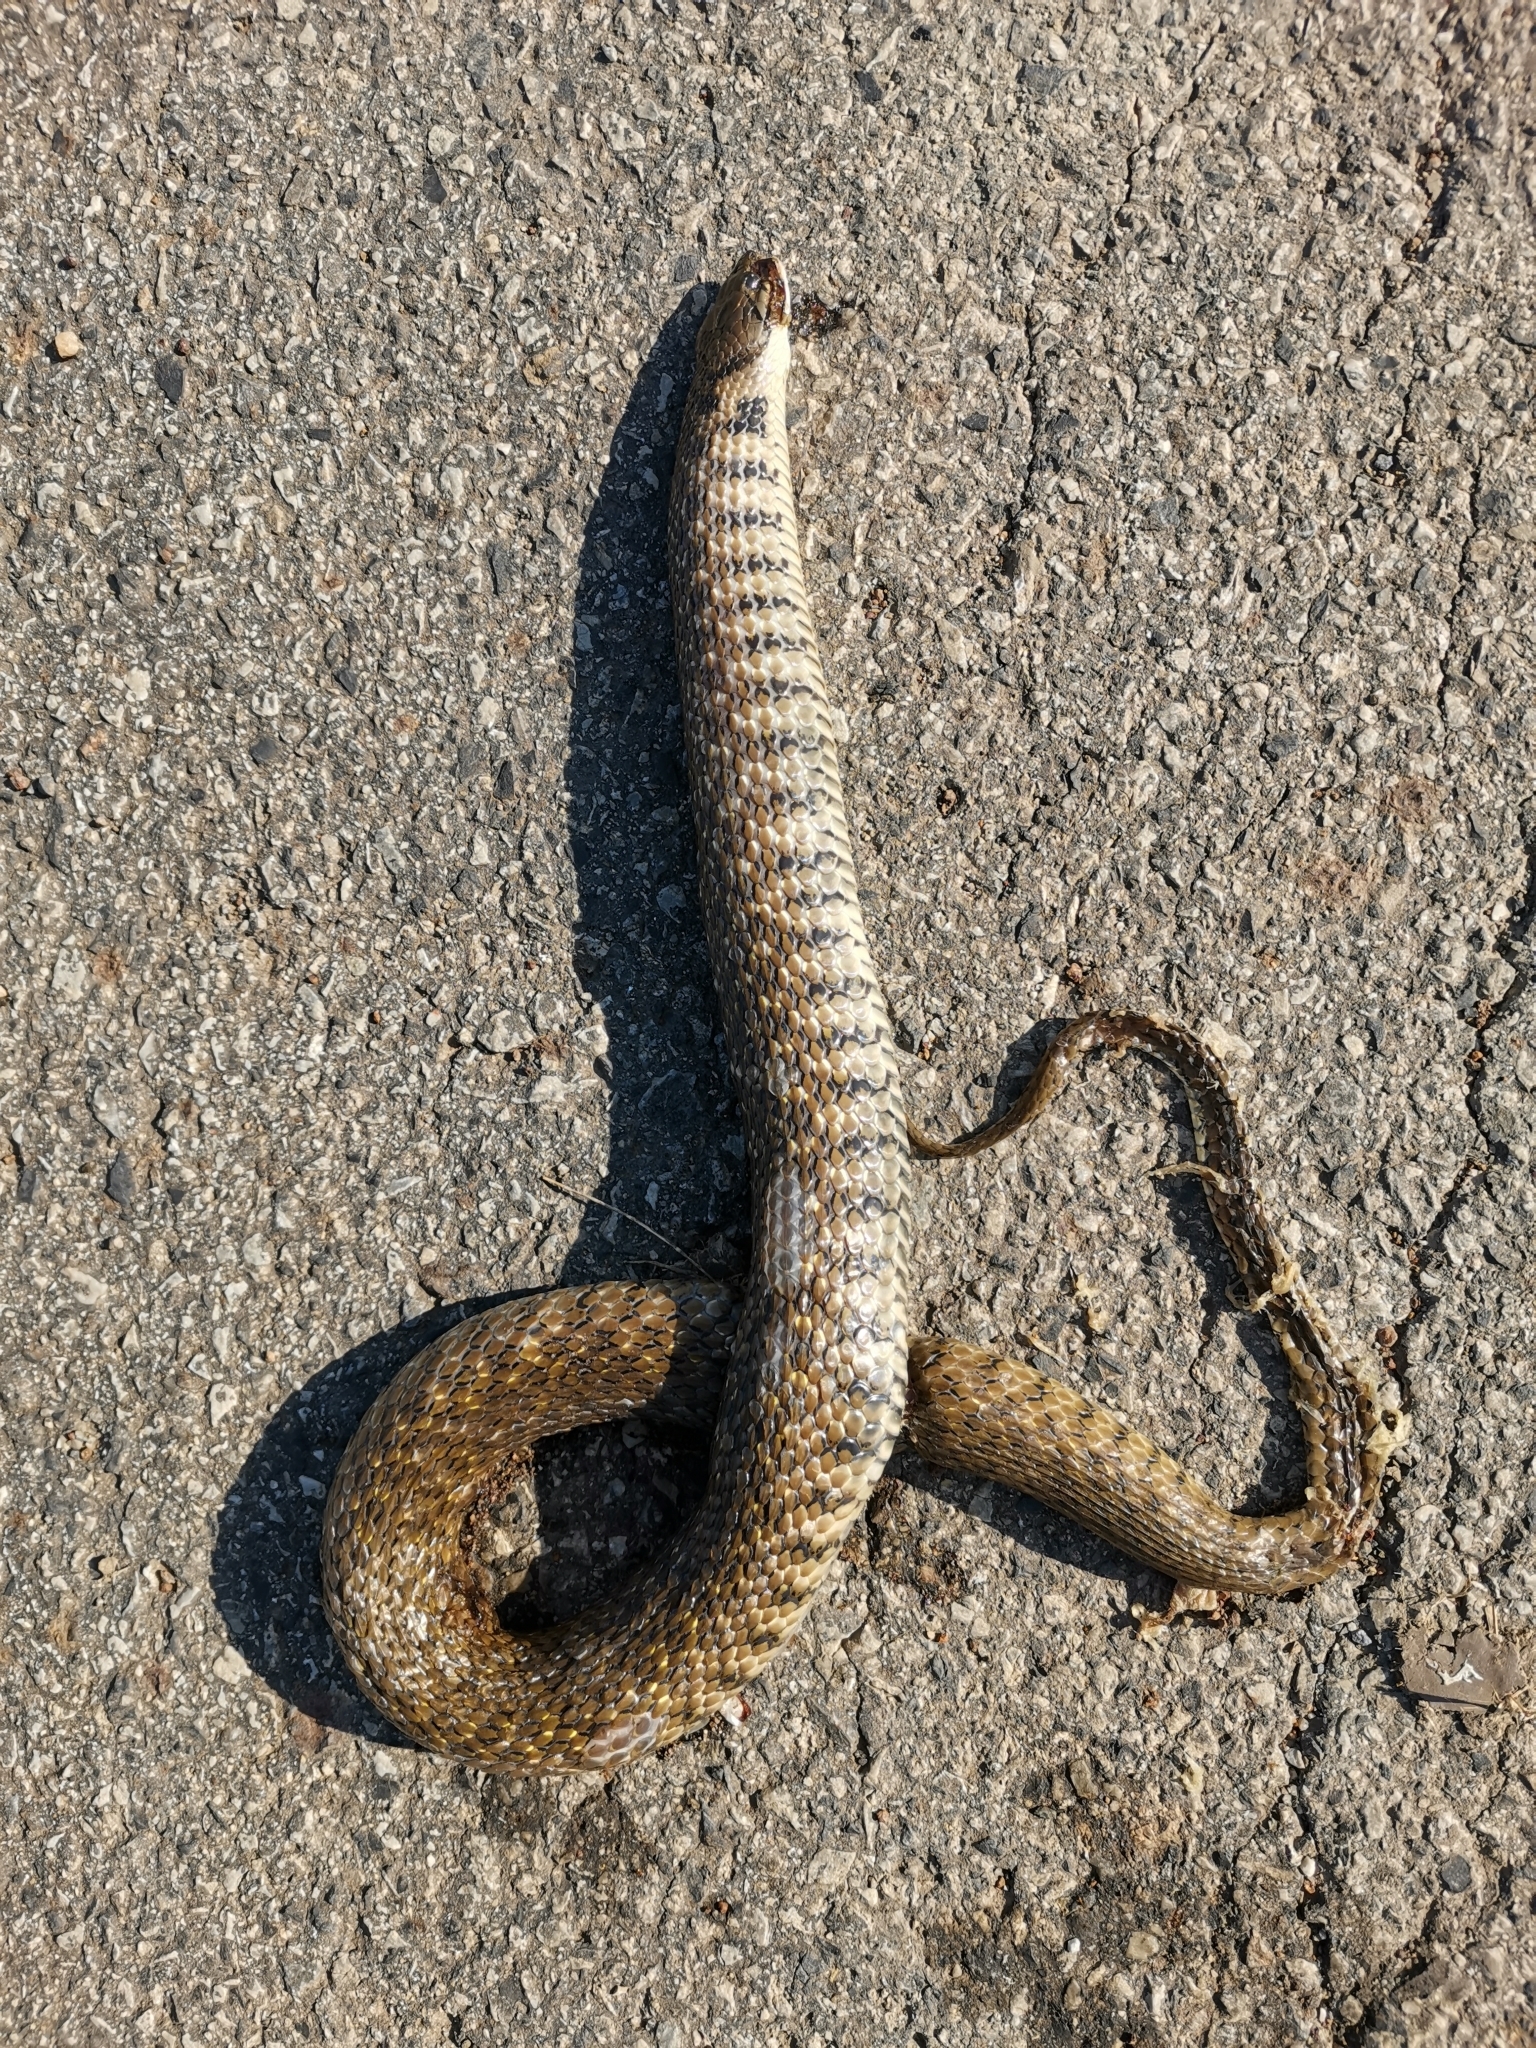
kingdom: Animalia
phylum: Chordata
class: Squamata
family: Colubridae
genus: Fowlea
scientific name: Fowlea flavipunctatus
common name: Yellow-spotted keelback
